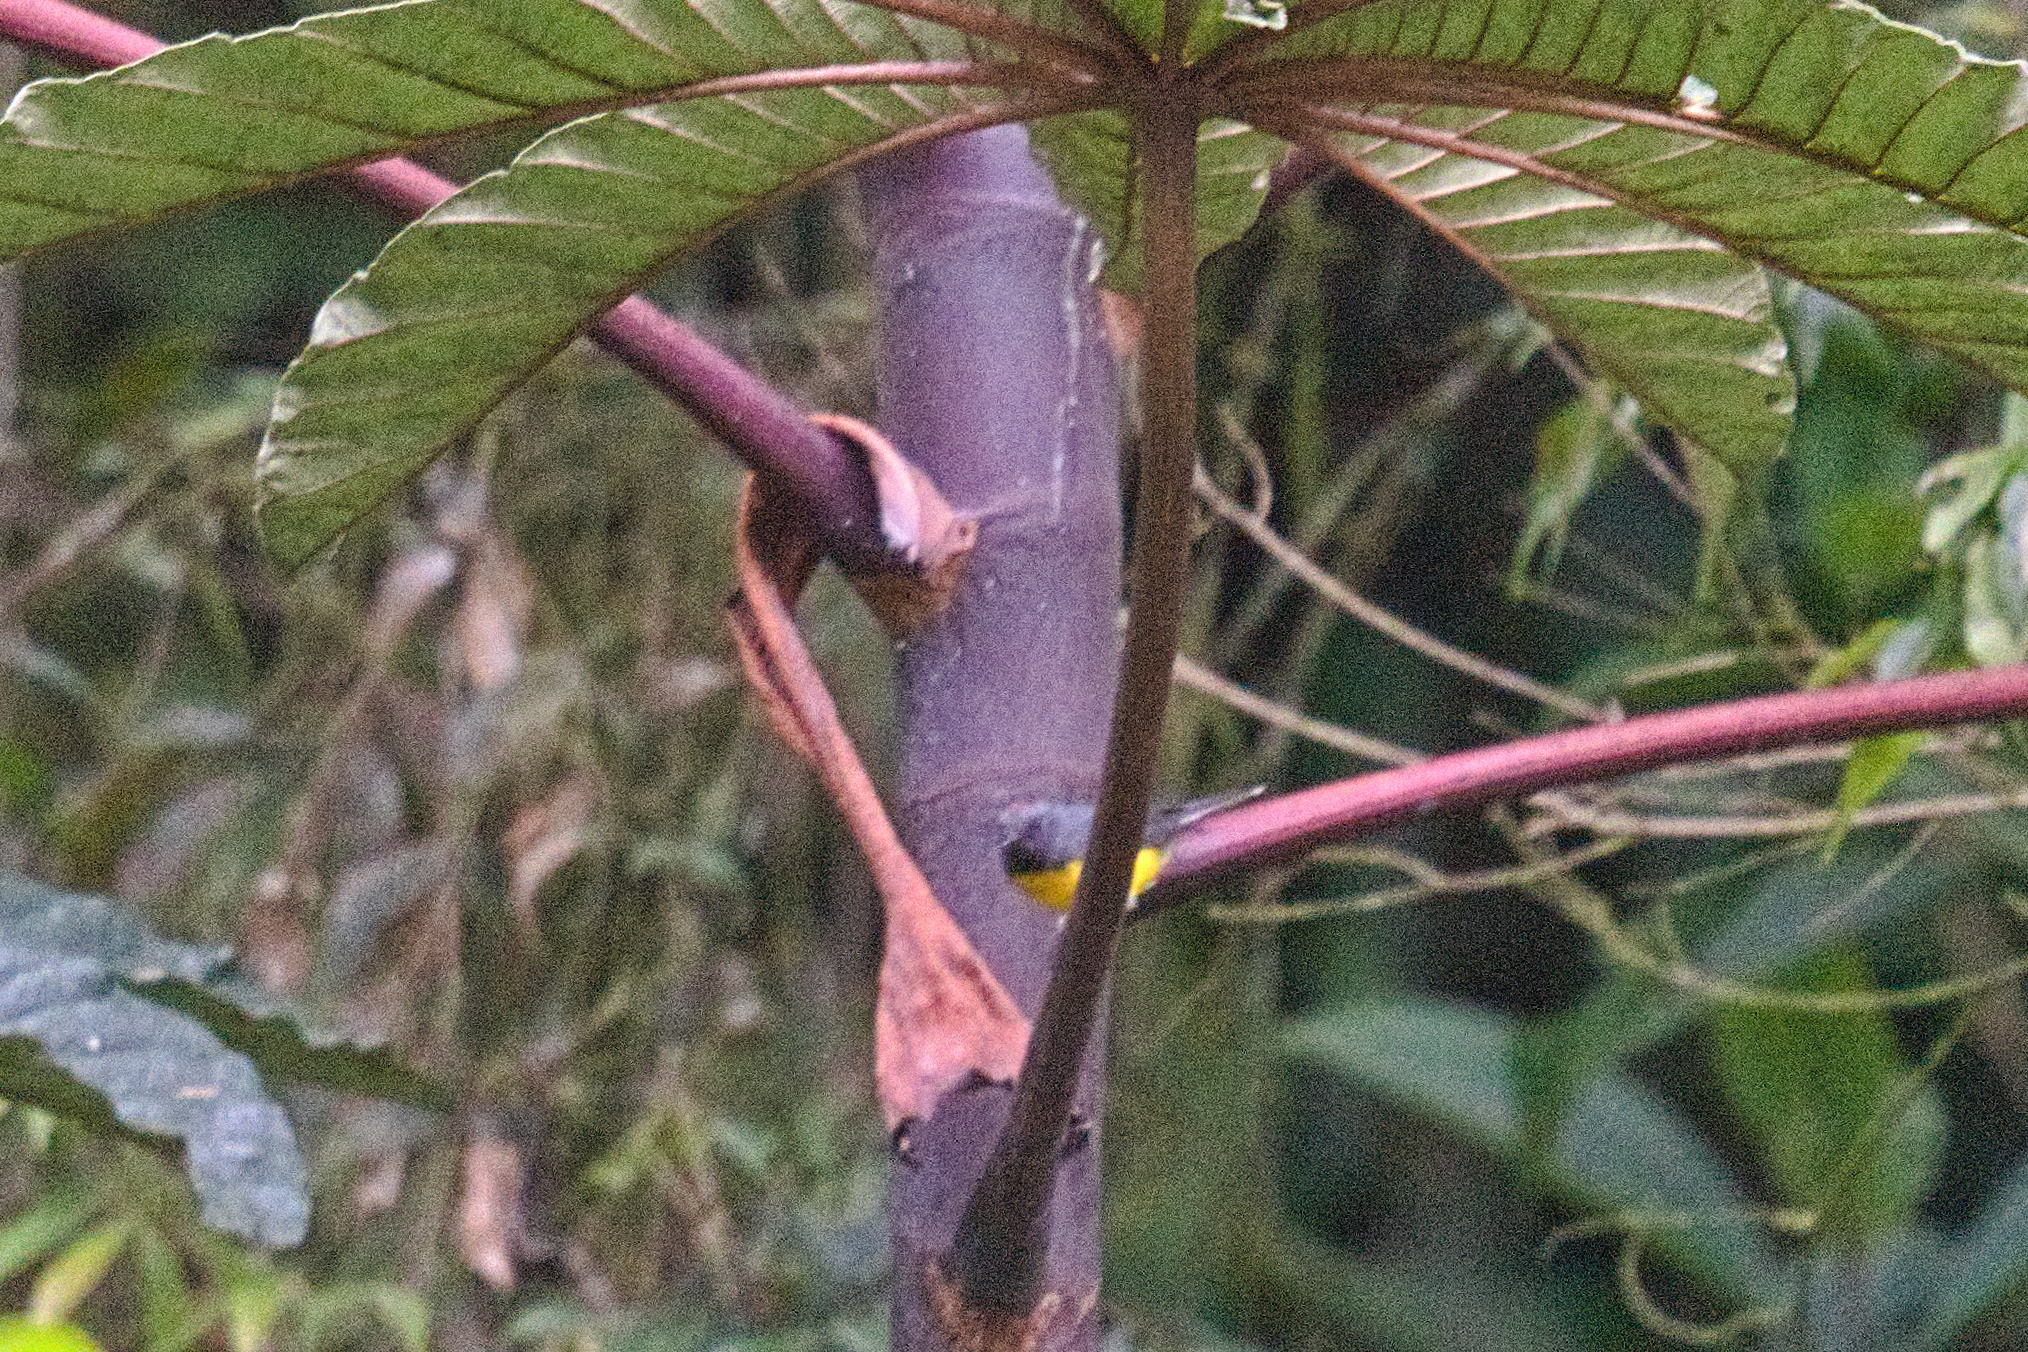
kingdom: Animalia
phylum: Chordata
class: Aves
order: Passeriformes
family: Parulidae
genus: Myioborus
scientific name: Myioborus miniatus
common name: Slate-throated redstart
